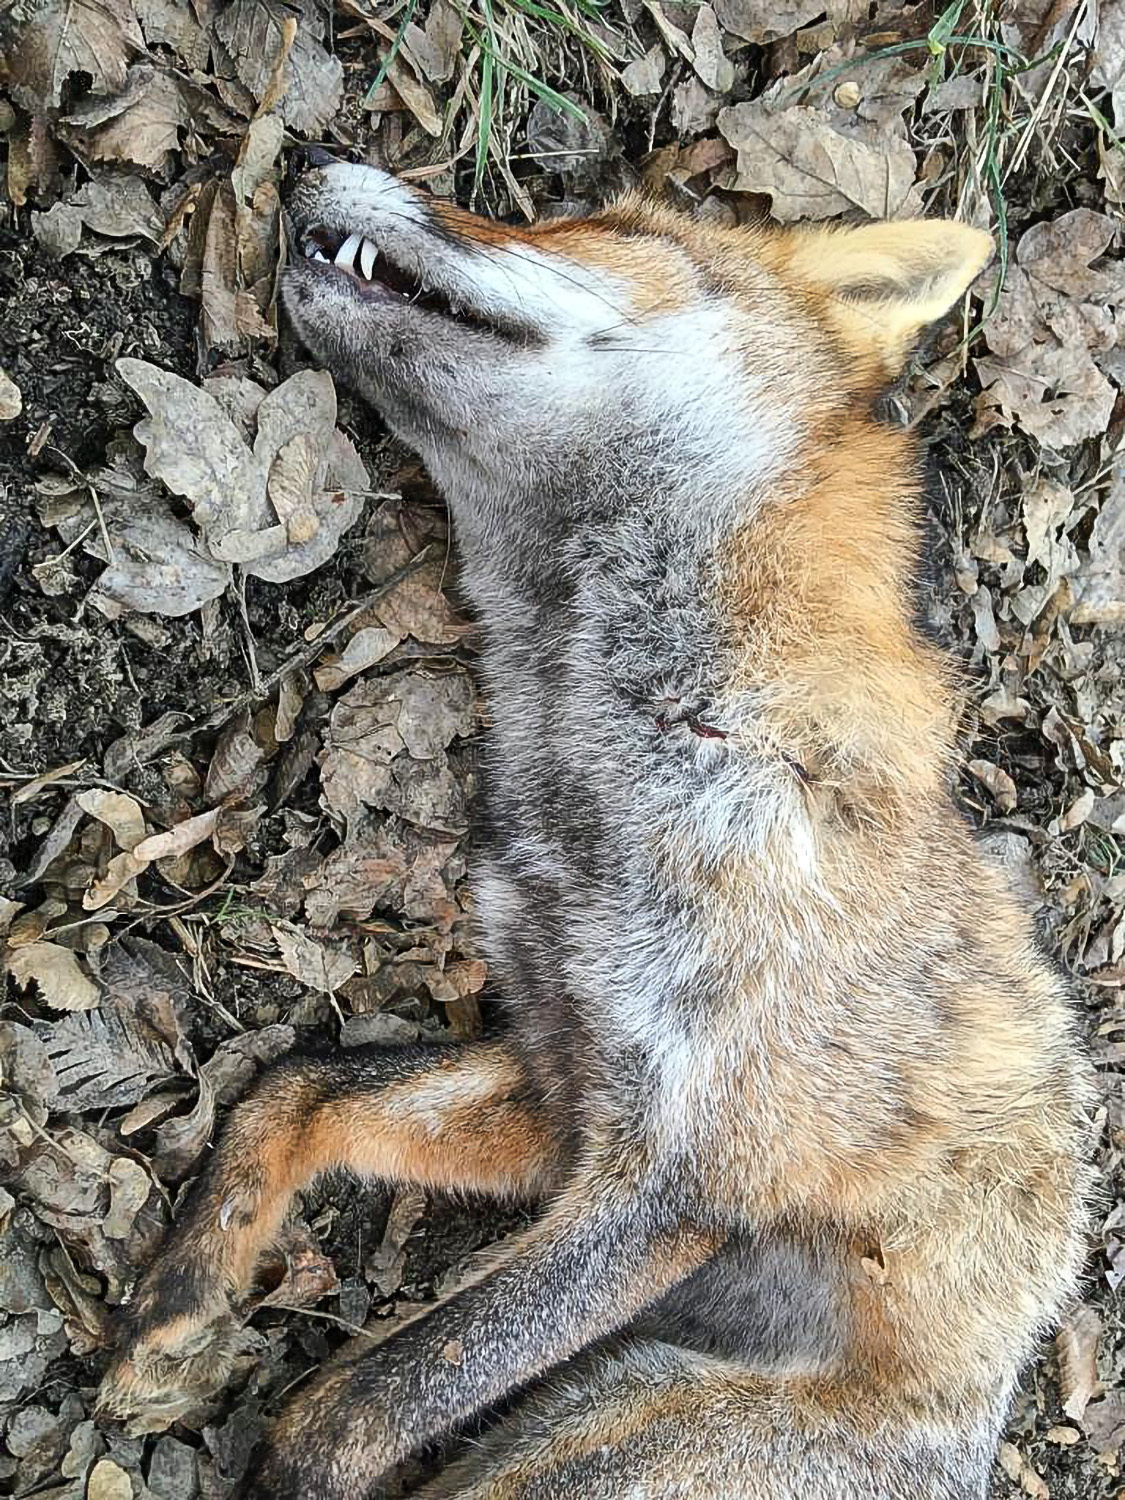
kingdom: Animalia
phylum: Chordata
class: Mammalia
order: Carnivora
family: Canidae
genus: Vulpes
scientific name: Vulpes vulpes
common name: Red fox
